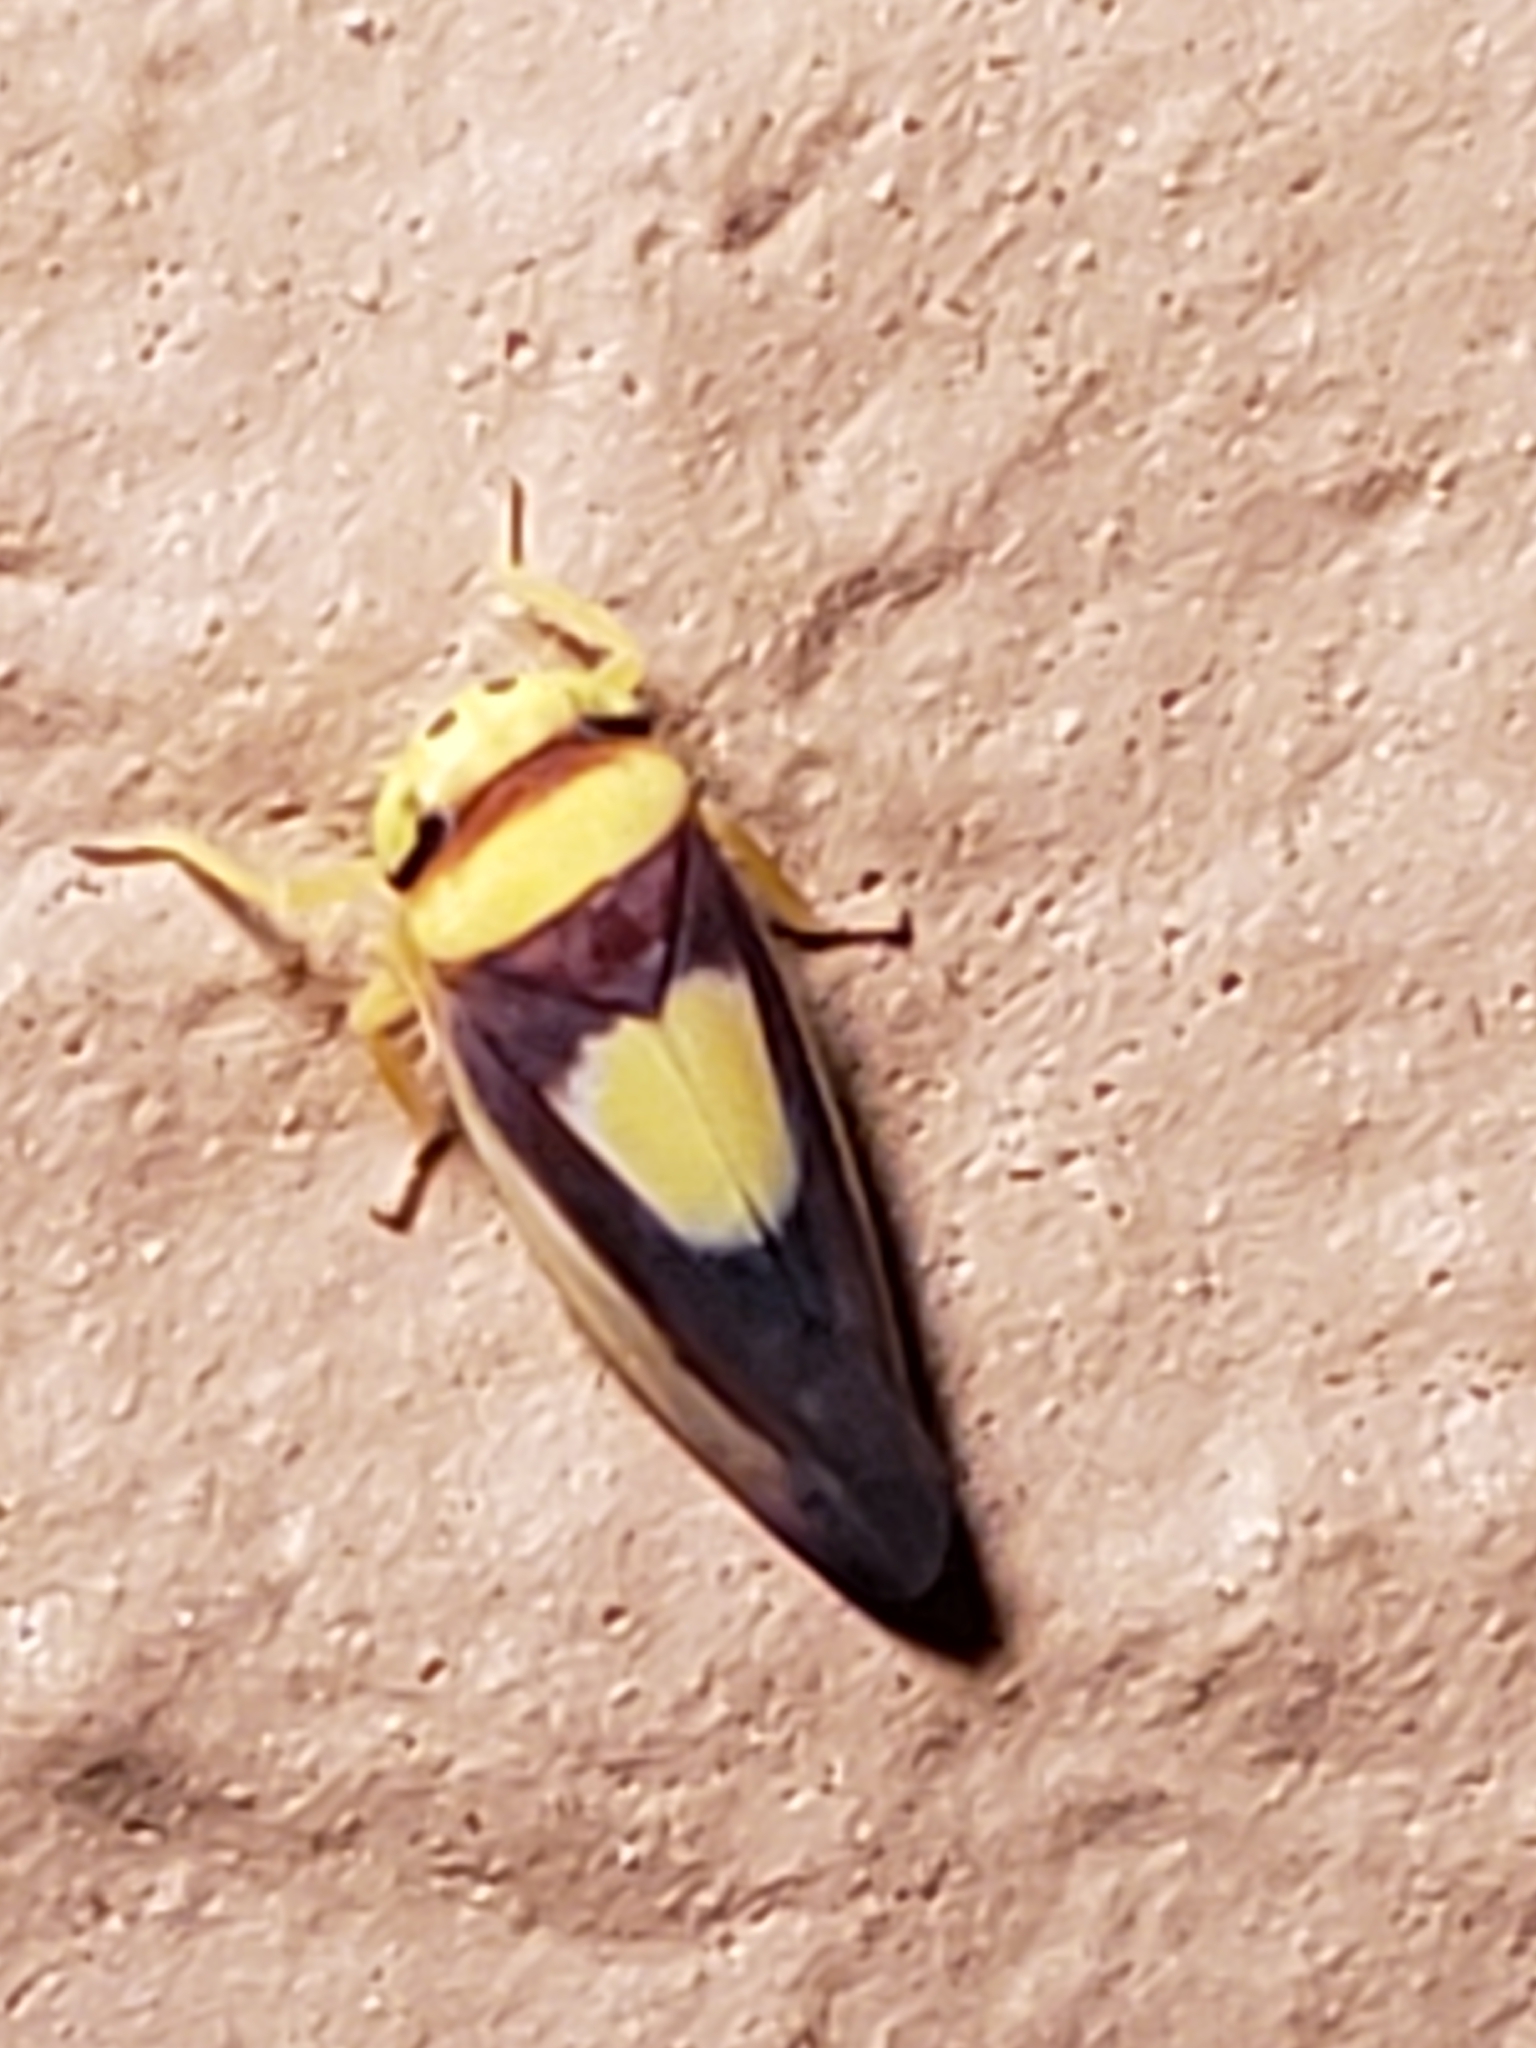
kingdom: Animalia
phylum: Arthropoda
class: Insecta
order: Hemiptera
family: Cicadellidae
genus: Colladonus
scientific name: Colladonus clitellarius
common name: The saddleback leafhopper
